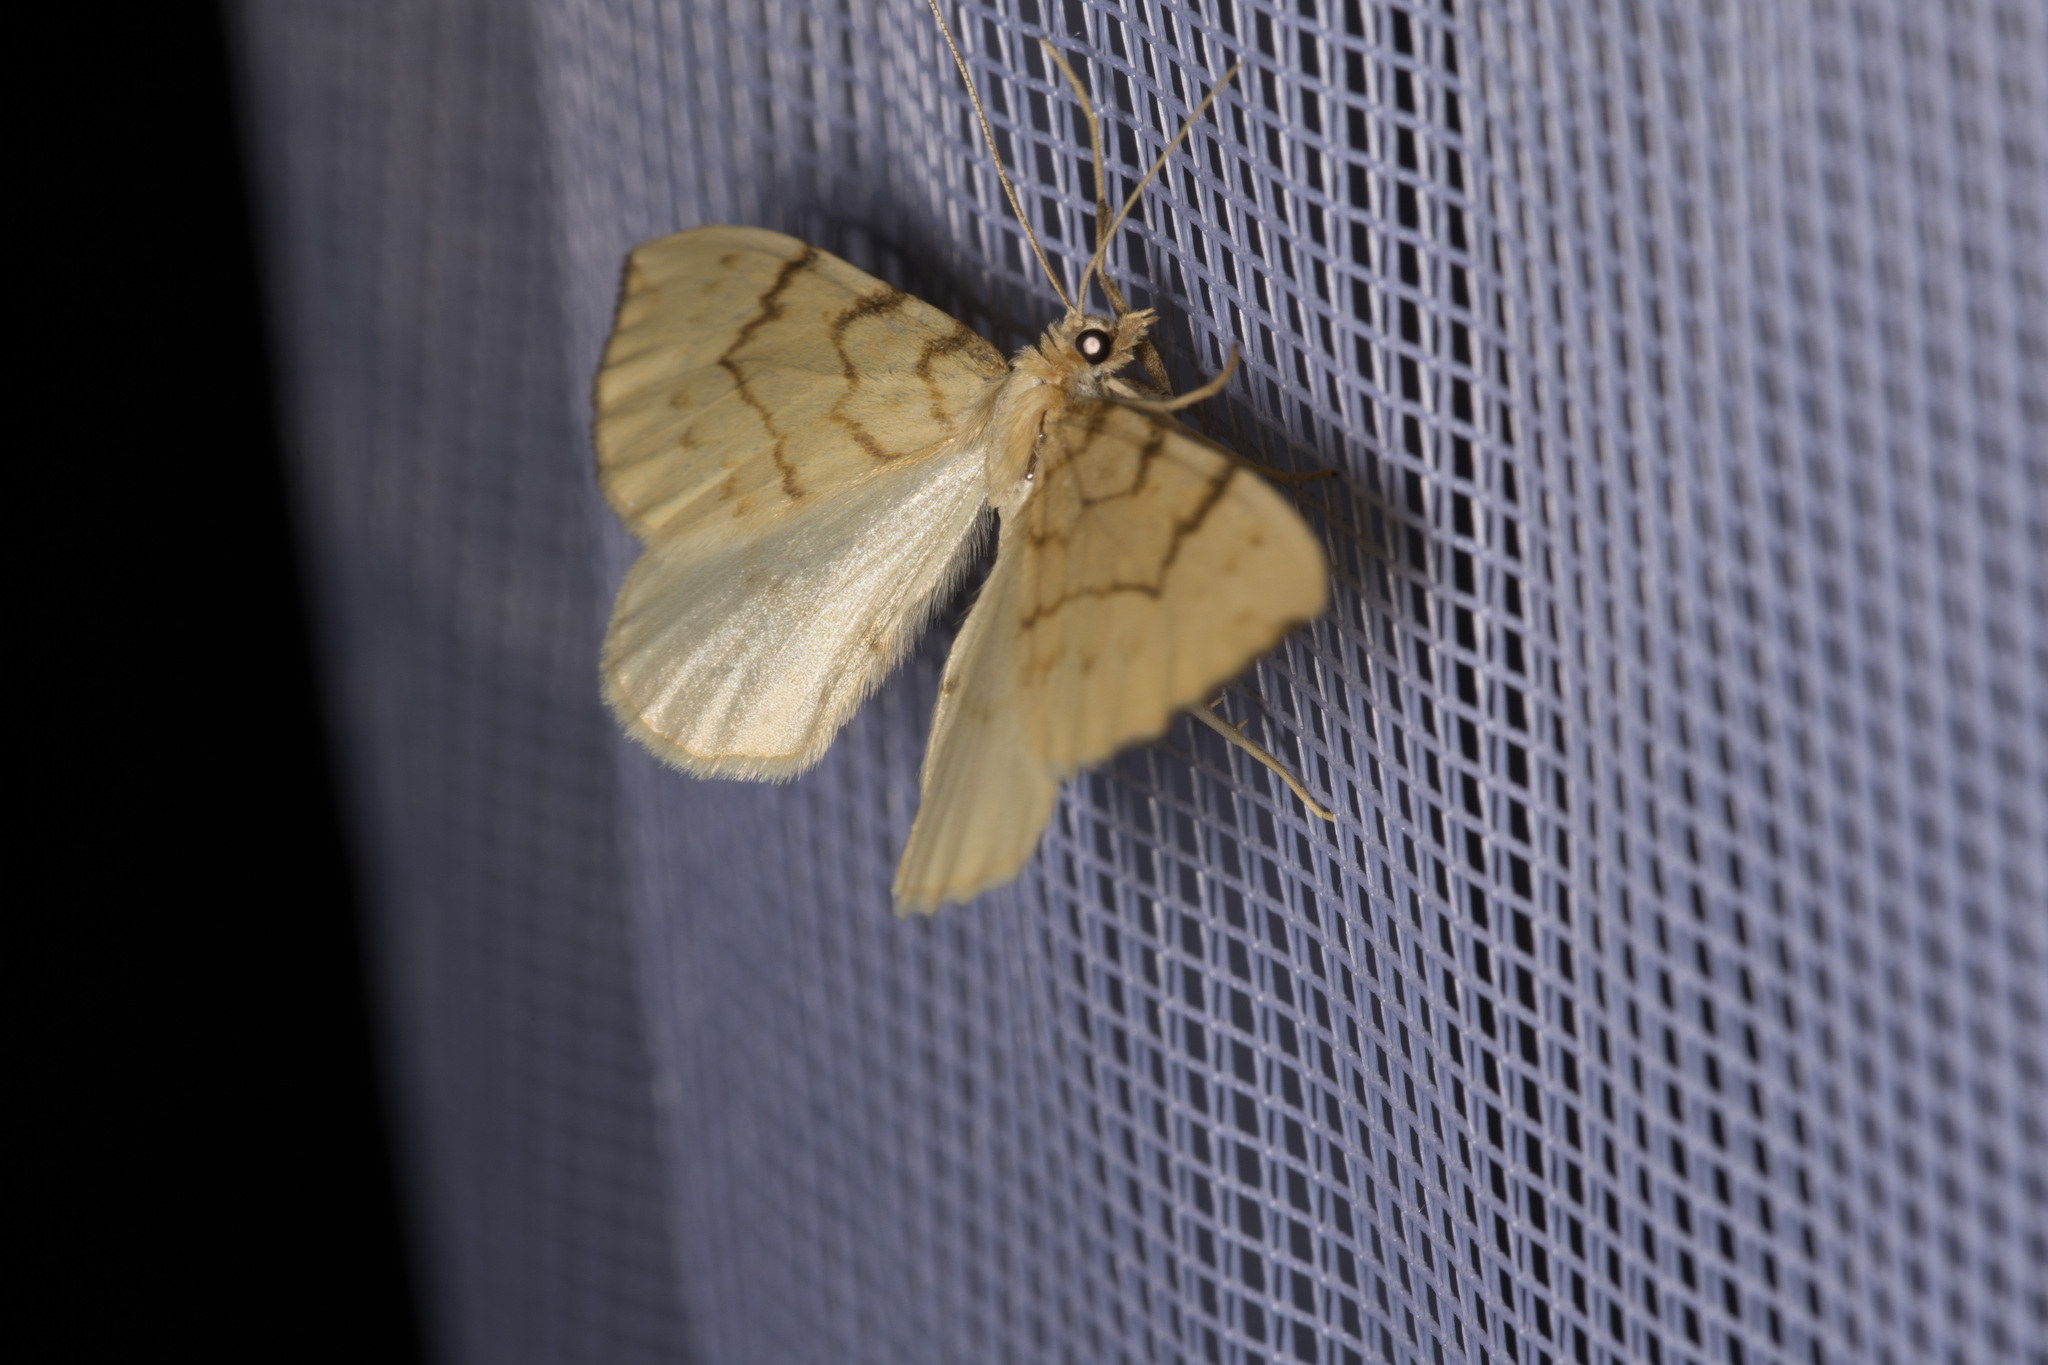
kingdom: Animalia
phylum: Arthropoda
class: Insecta
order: Lepidoptera
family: Geometridae
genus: Eulithis
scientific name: Eulithis pyraliata
